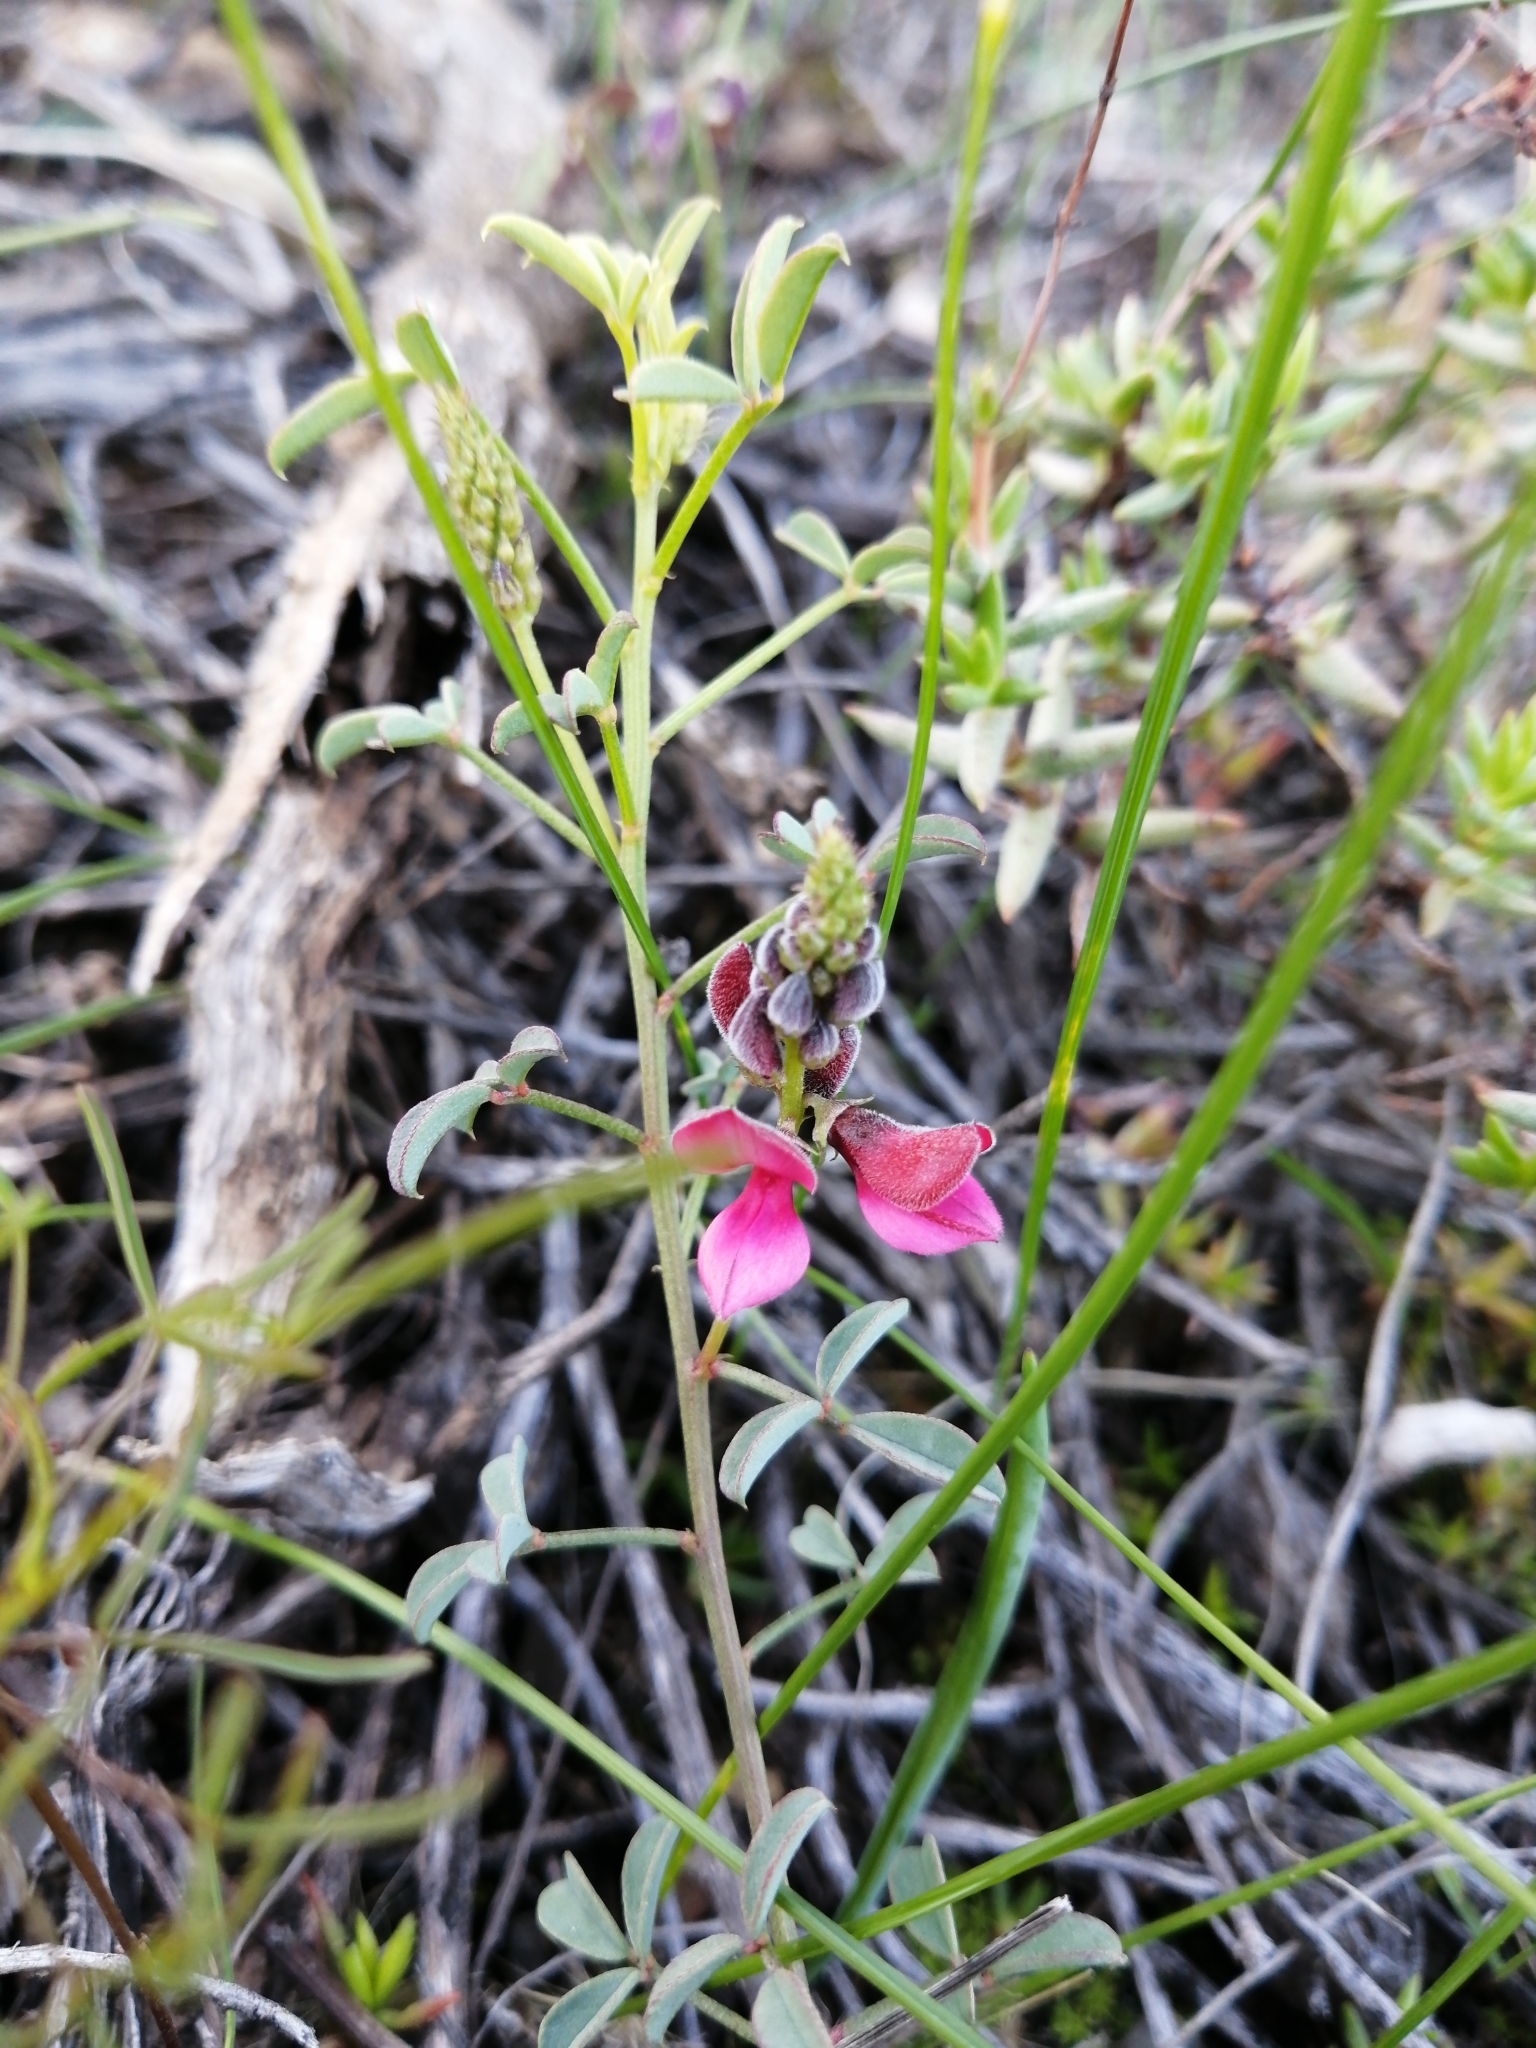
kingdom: Plantae
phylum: Tracheophyta
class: Magnoliopsida
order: Fabales
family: Fabaceae
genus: Indigofera
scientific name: Indigofera heterophylla
